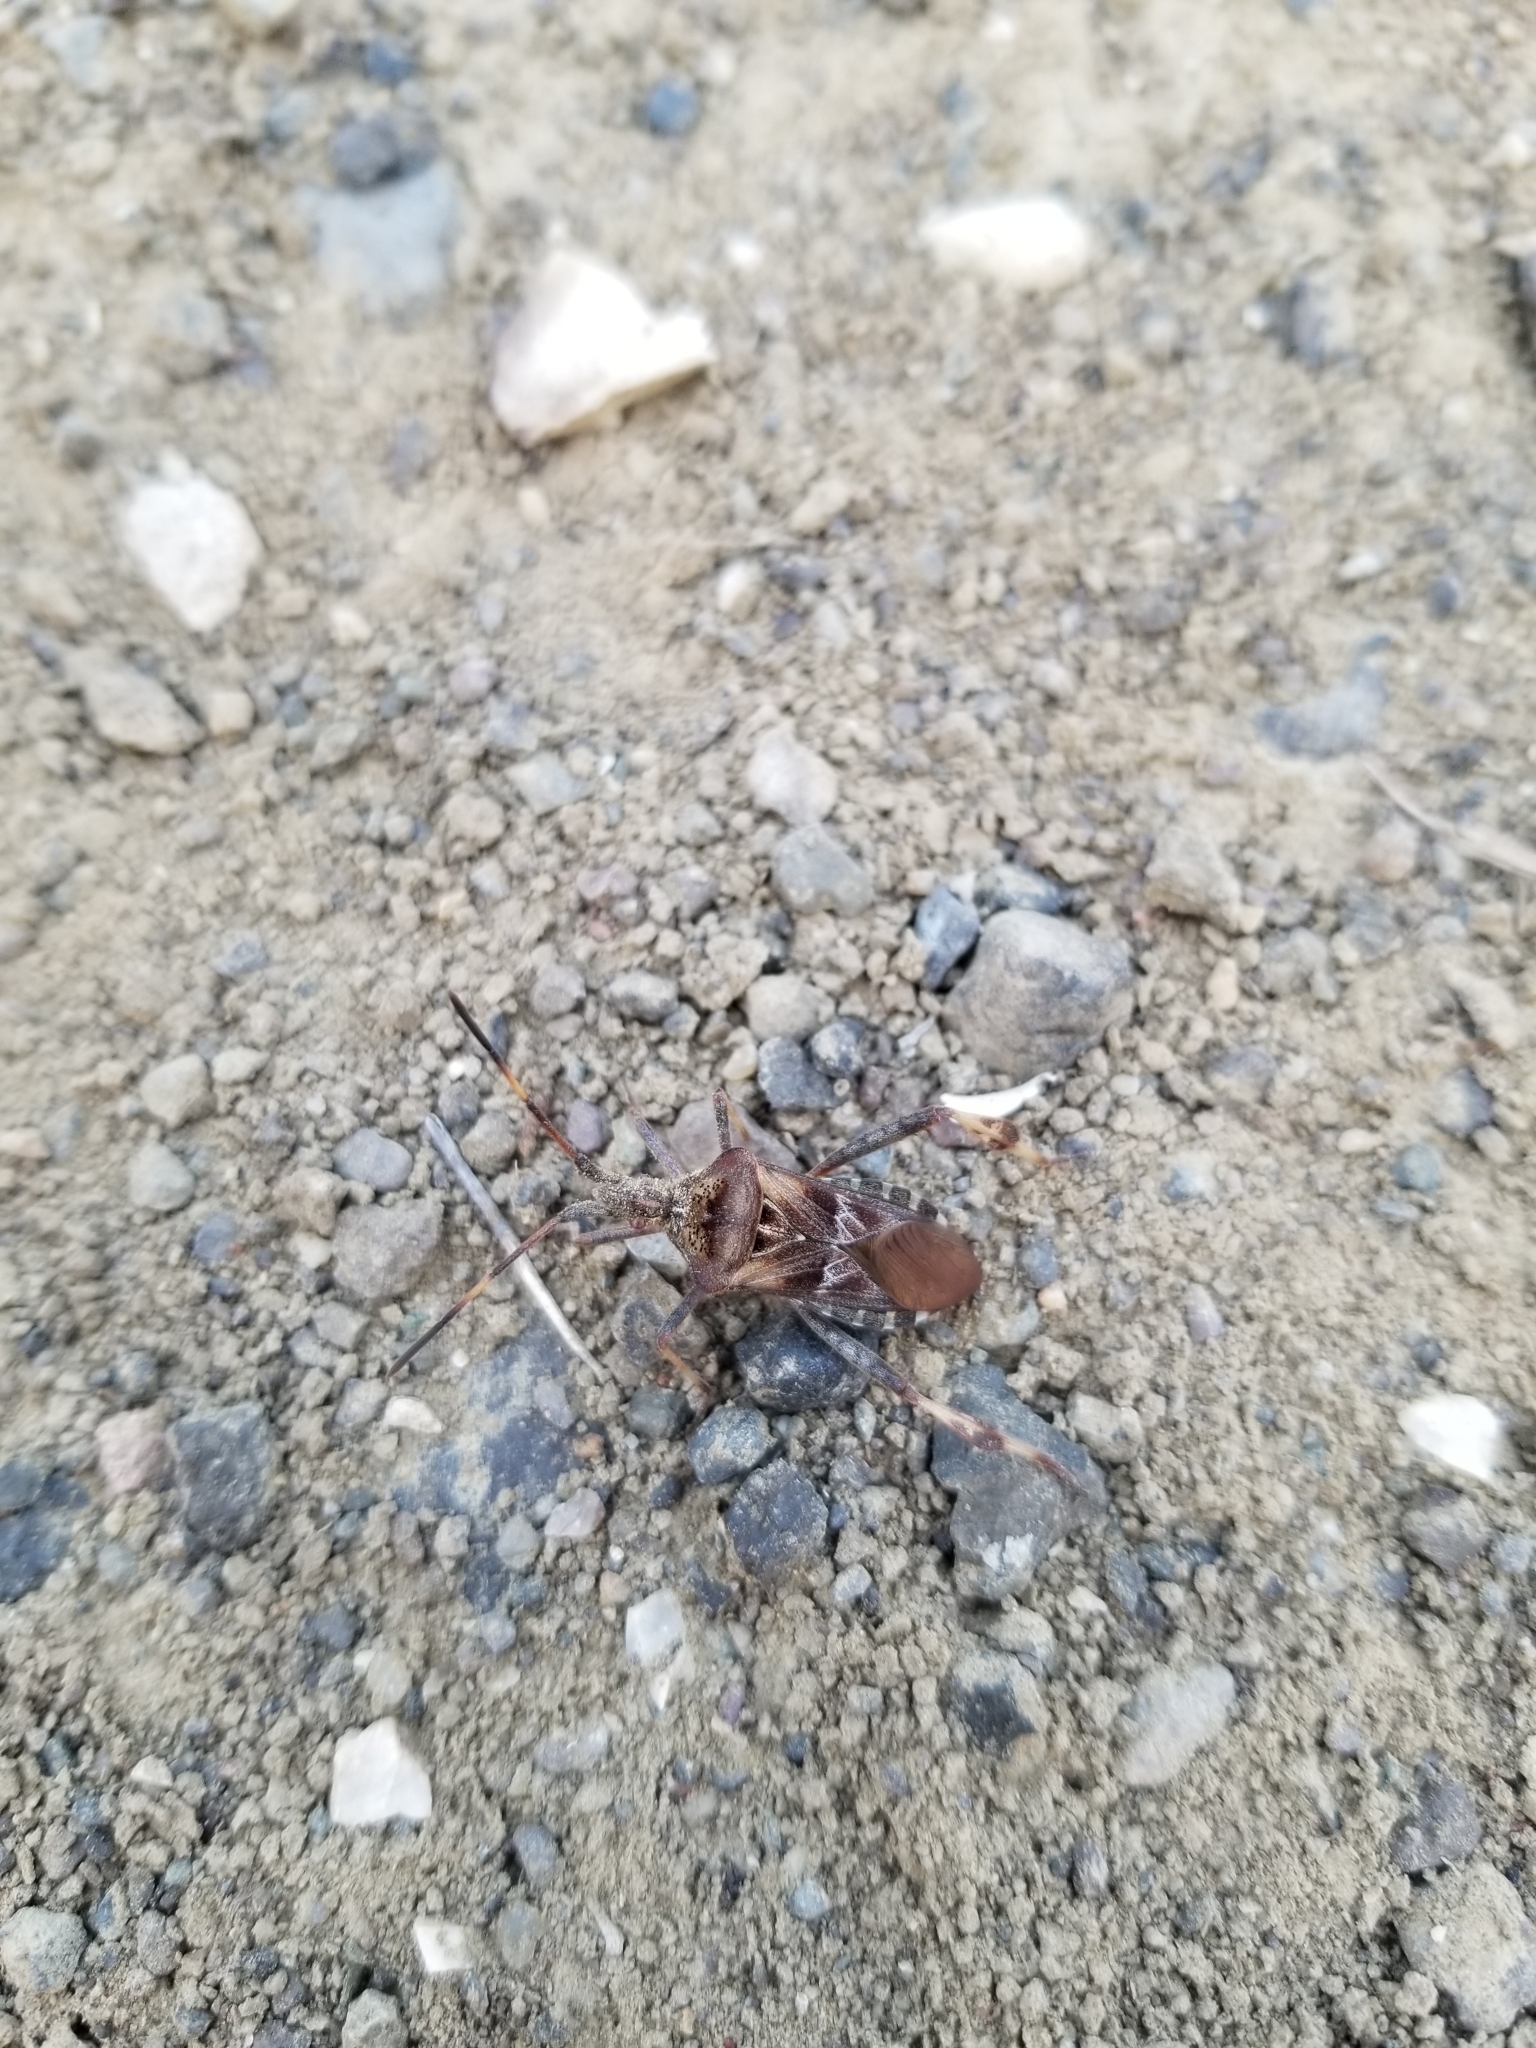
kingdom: Animalia
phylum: Arthropoda
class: Insecta
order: Hemiptera
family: Coreidae
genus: Leptoglossus
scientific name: Leptoglossus occidentalis
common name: Western conifer-seed bug
